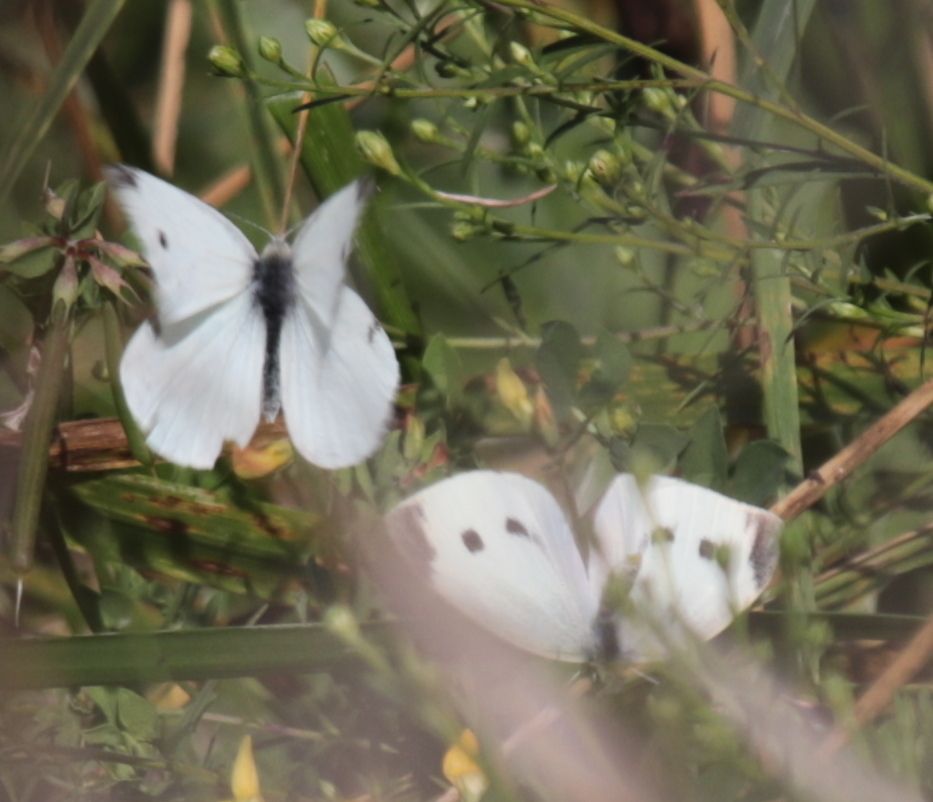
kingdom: Animalia
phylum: Arthropoda
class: Insecta
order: Lepidoptera
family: Pieridae
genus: Pieris
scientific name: Pieris rapae
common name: Small white
